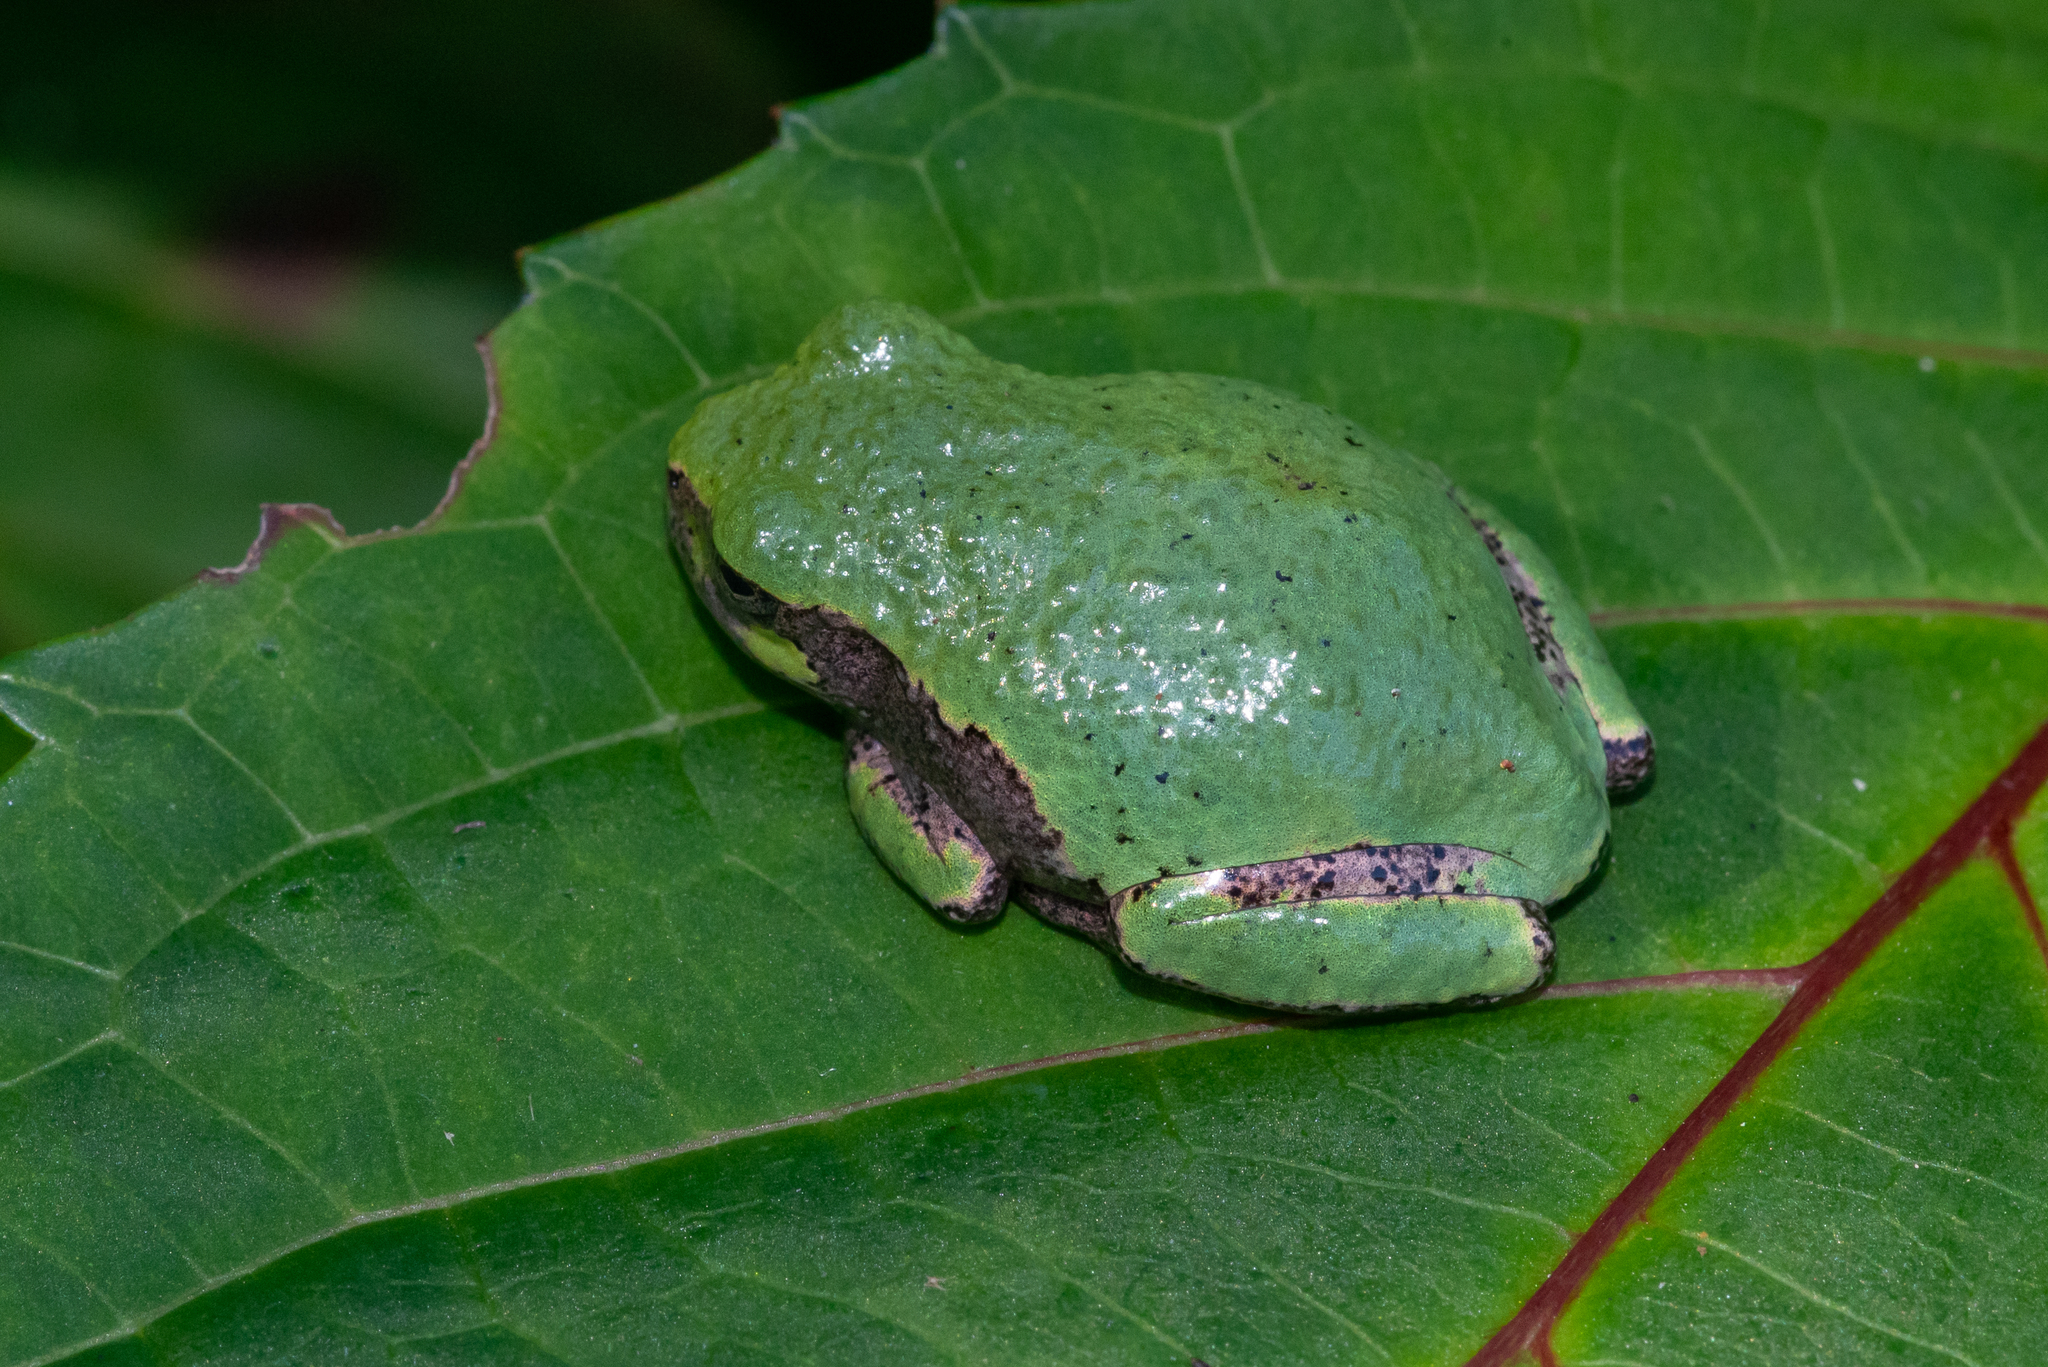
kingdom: Animalia
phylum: Chordata
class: Amphibia
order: Anura
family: Hylidae
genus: Hyla
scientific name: Hyla
